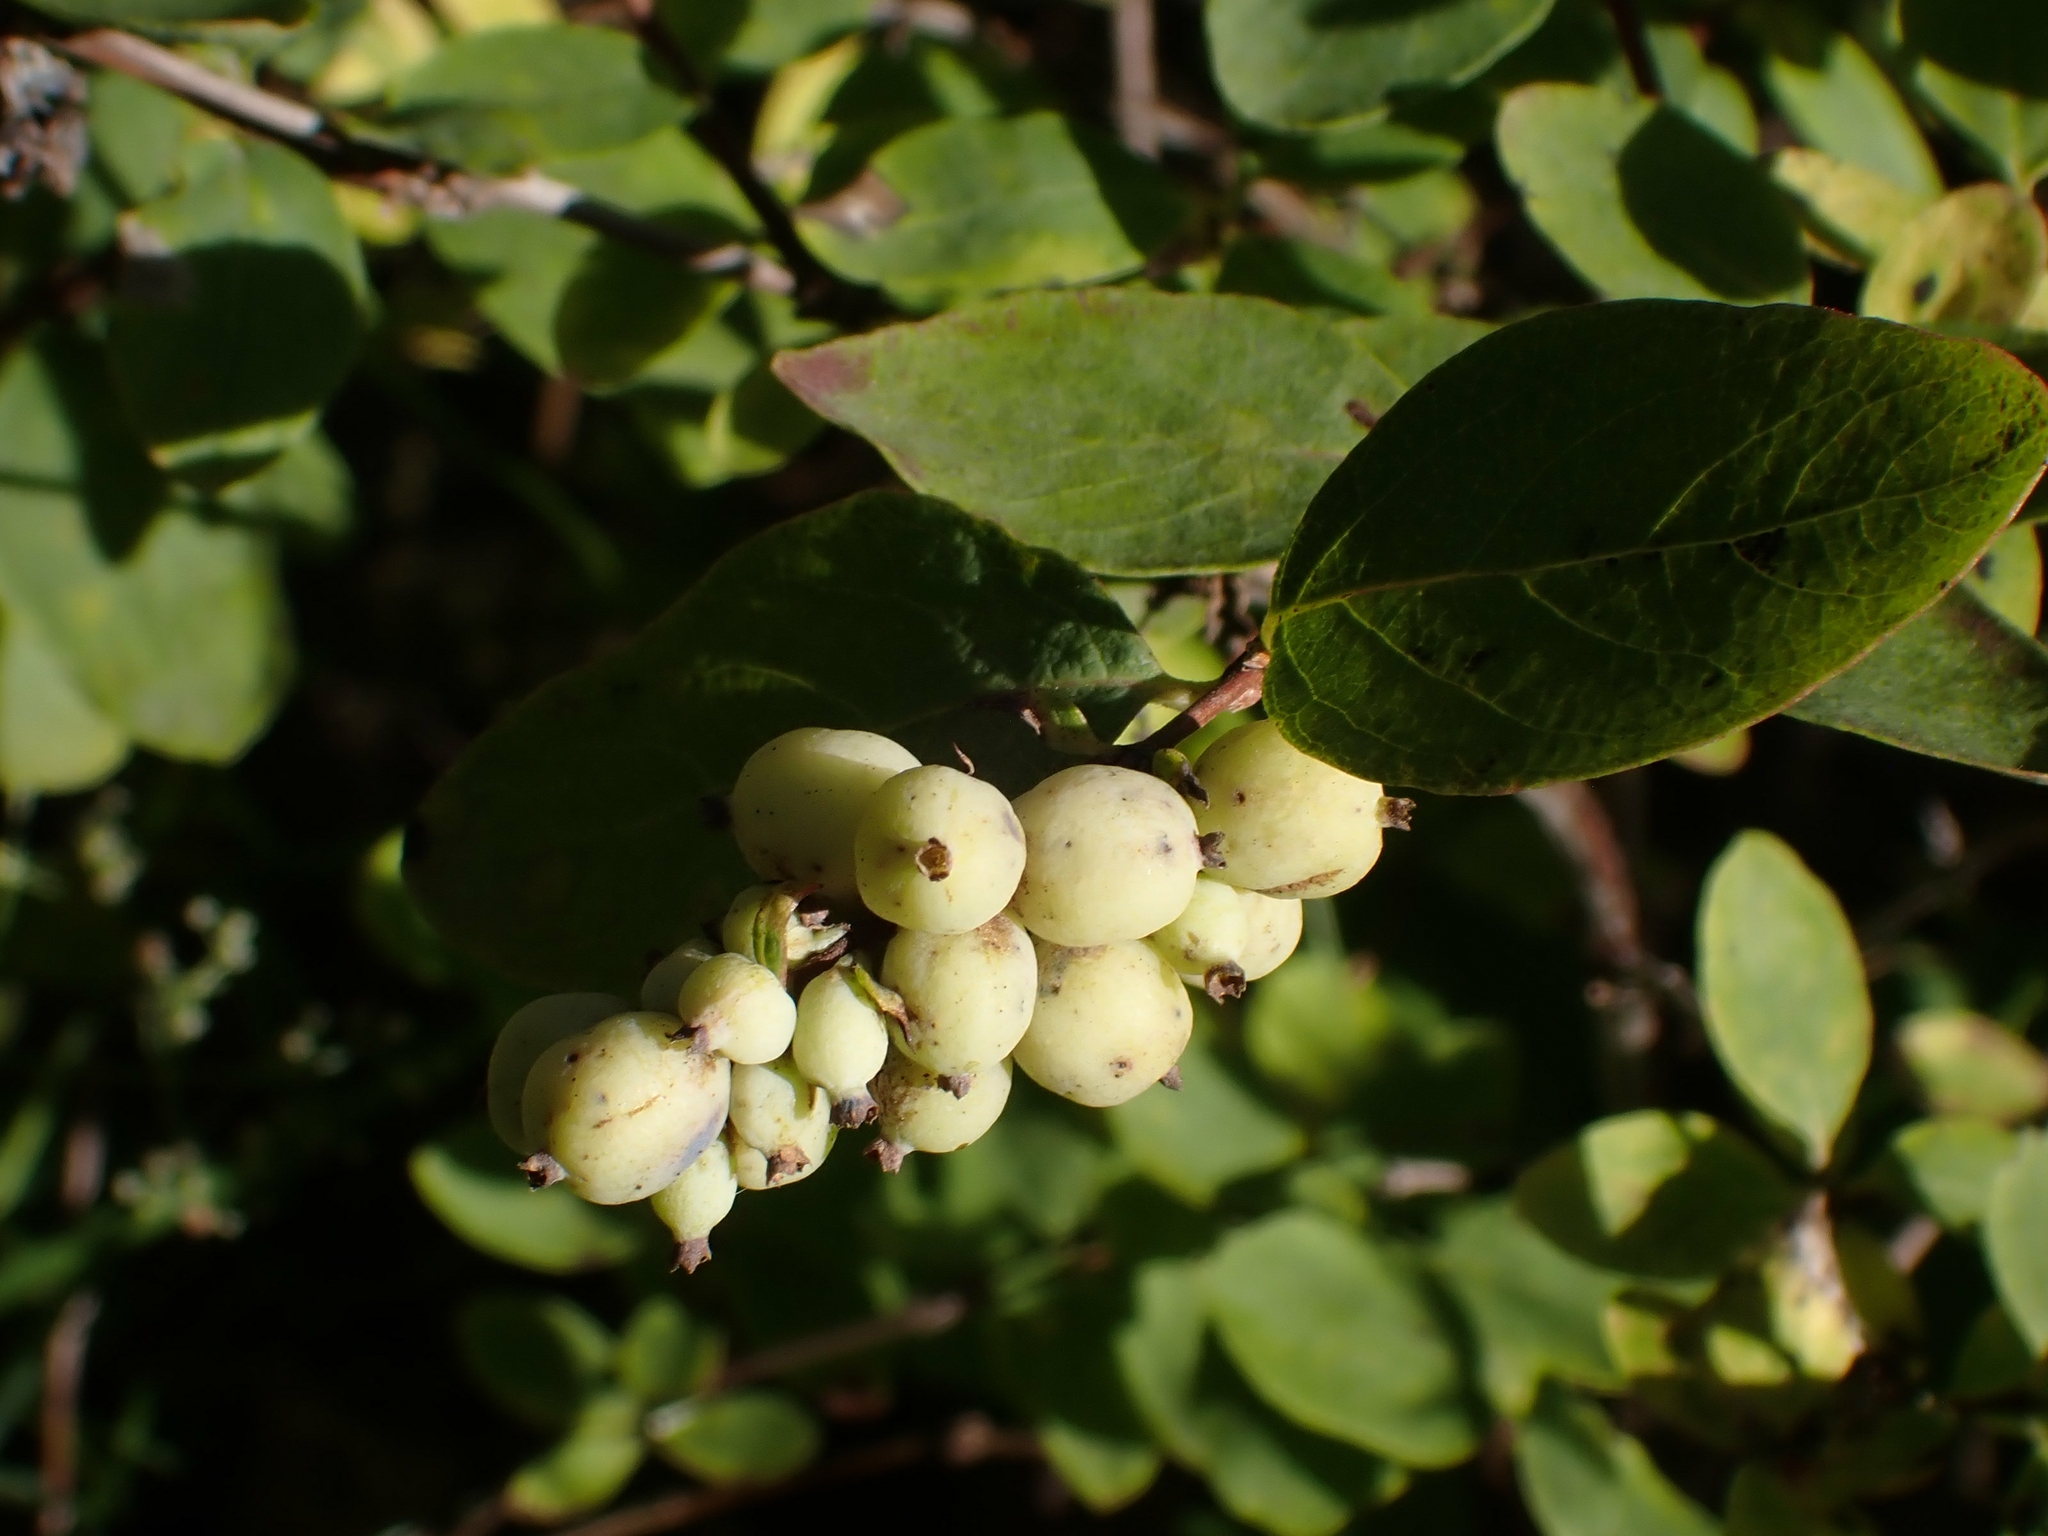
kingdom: Plantae
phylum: Tracheophyta
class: Magnoliopsida
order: Dipsacales
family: Caprifoliaceae
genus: Symphoricarpos
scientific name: Symphoricarpos occidentalis
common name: Wolfberry
